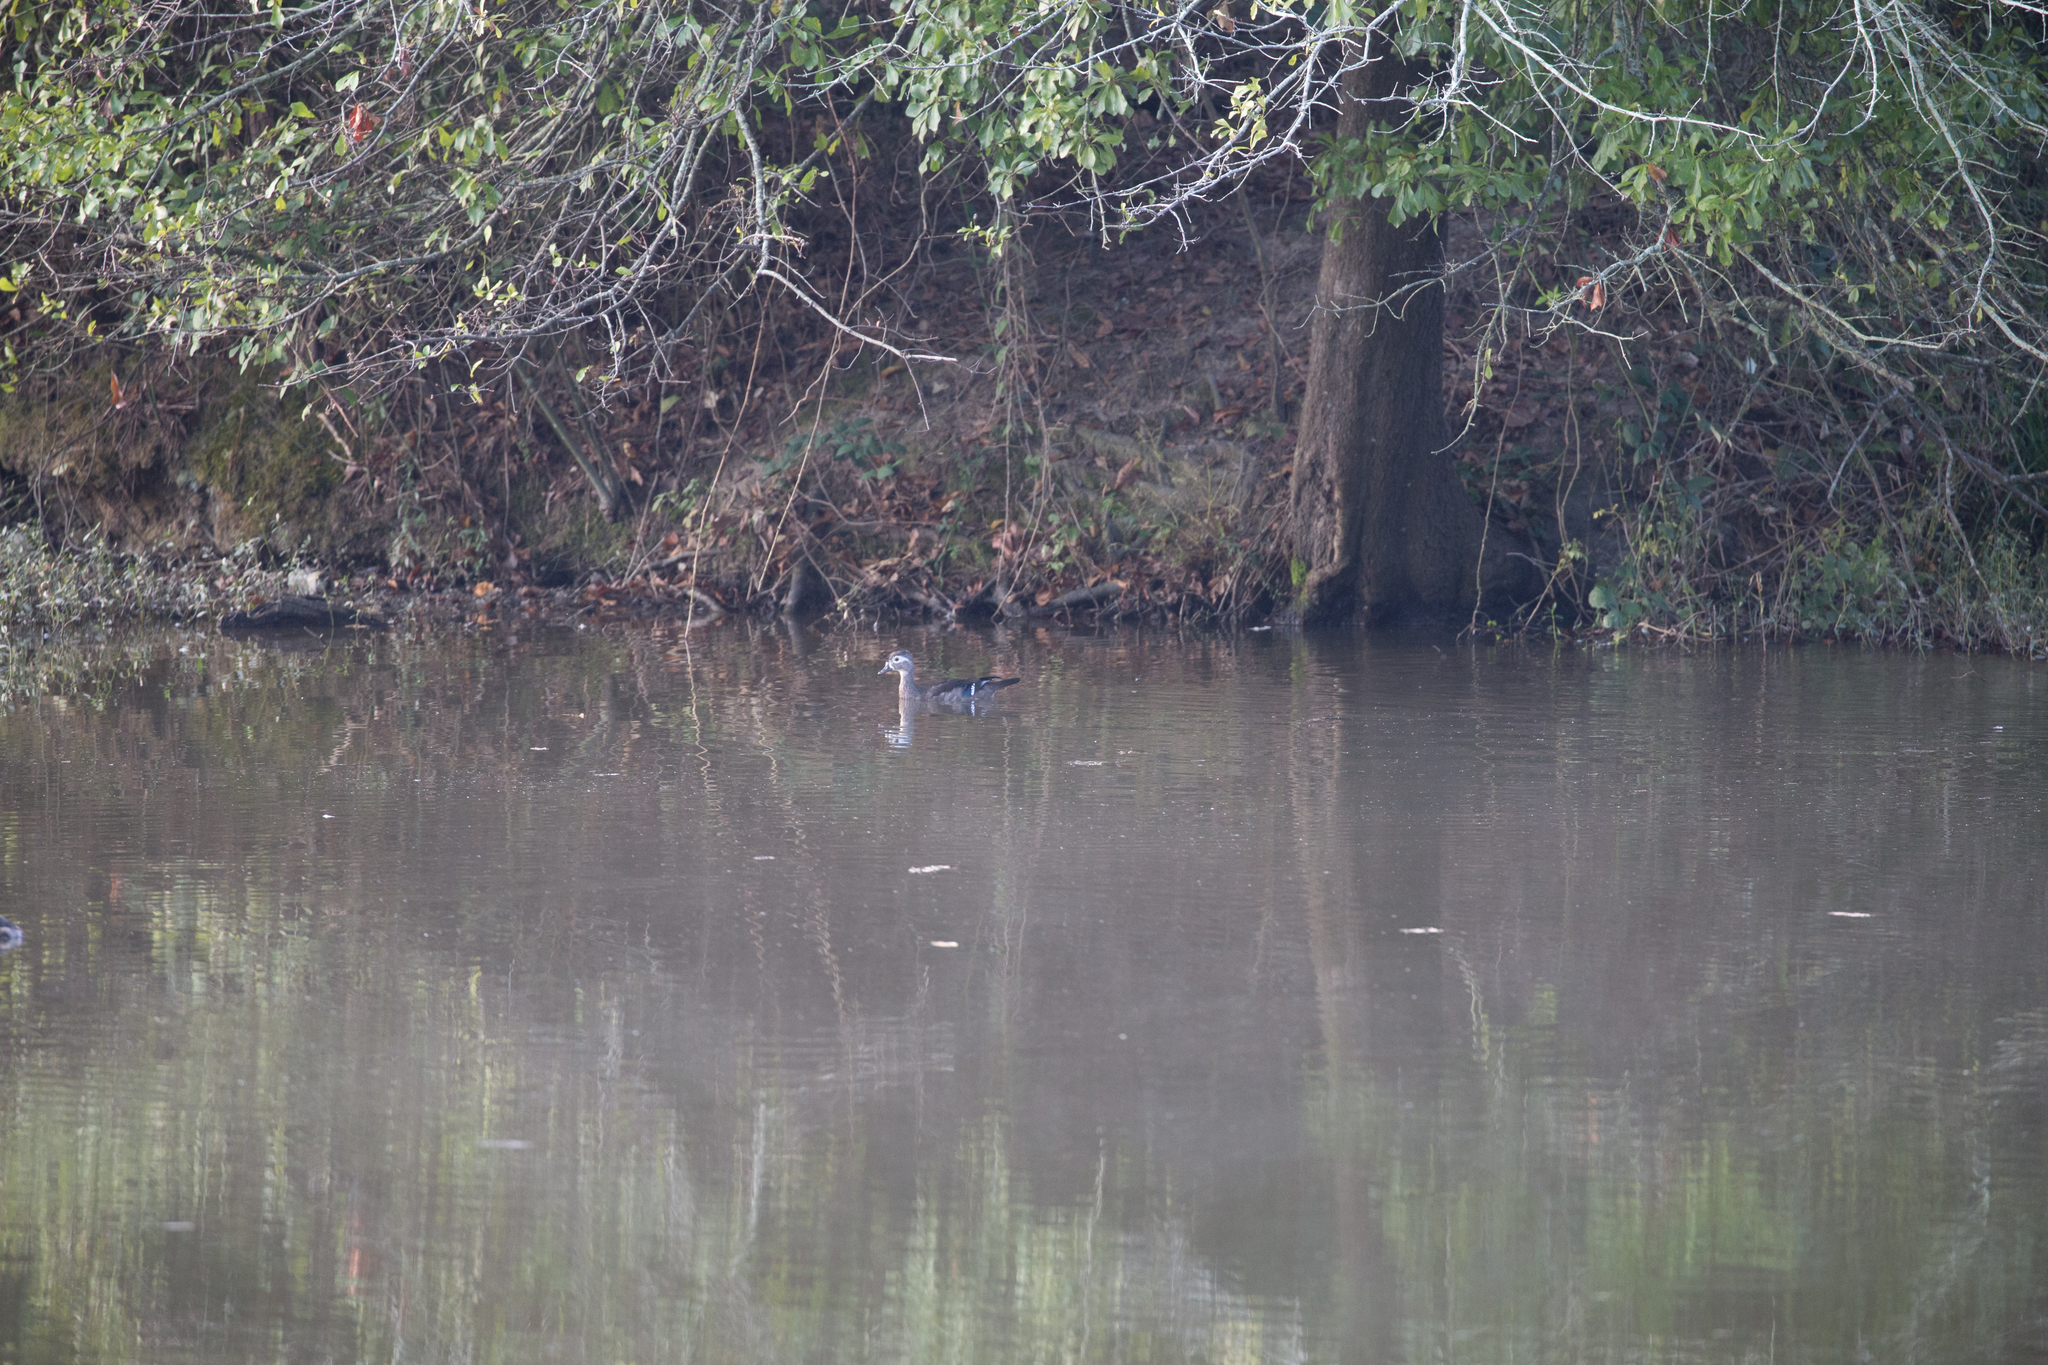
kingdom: Animalia
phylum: Chordata
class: Aves
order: Anseriformes
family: Anatidae
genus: Aix
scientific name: Aix sponsa
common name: Wood duck
